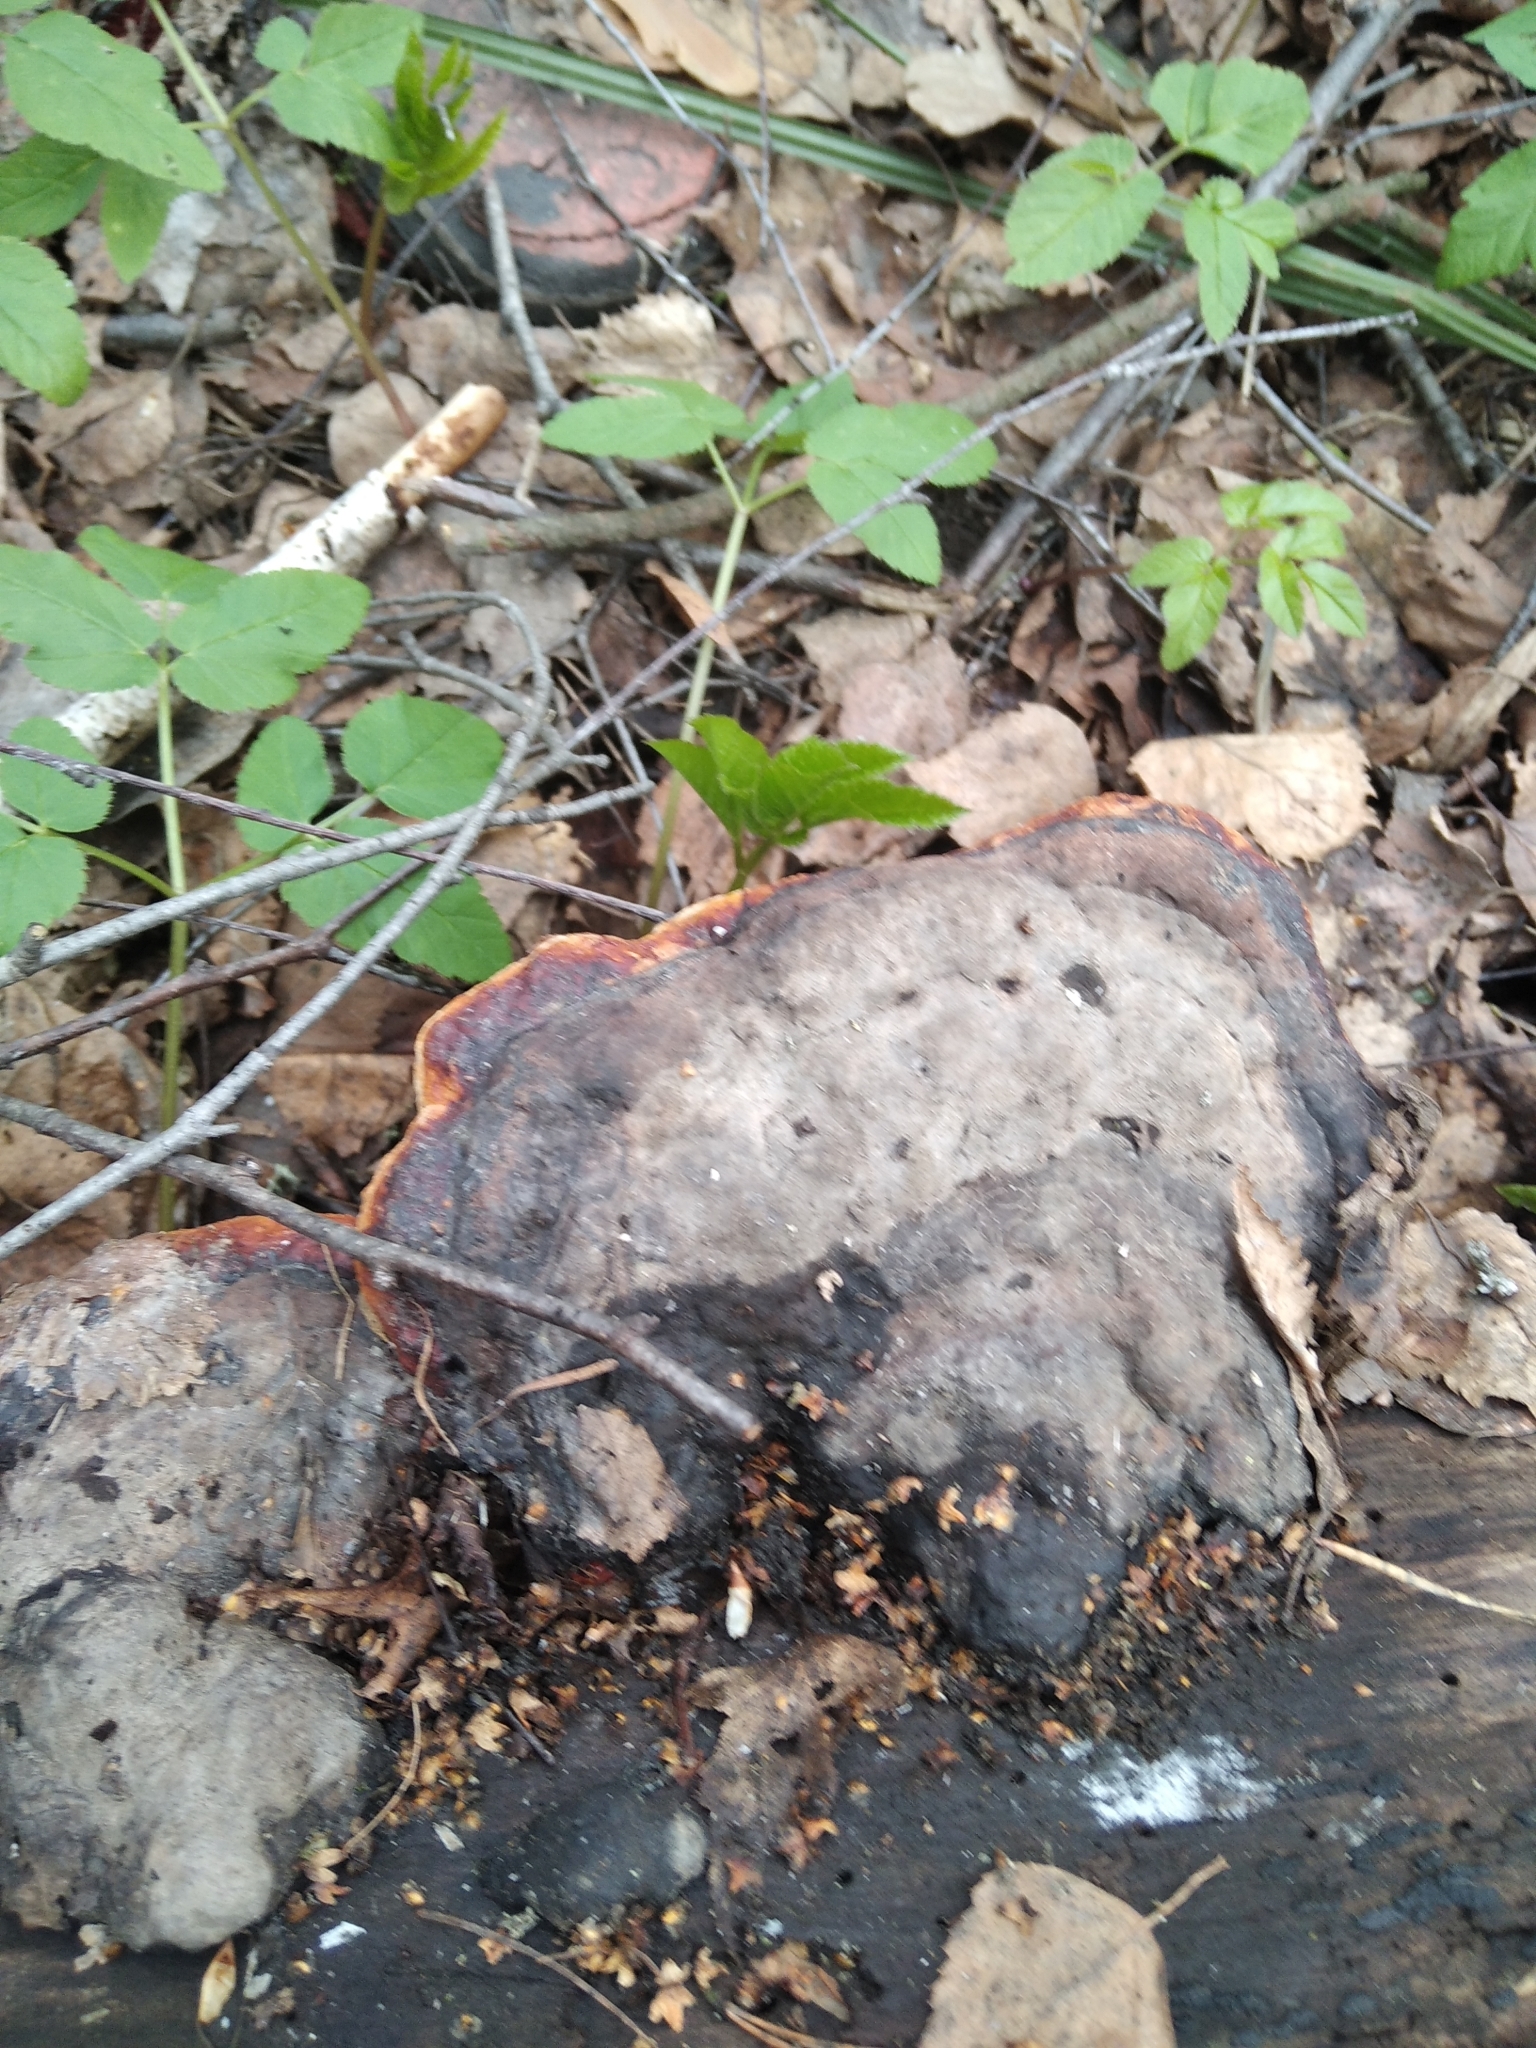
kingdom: Fungi
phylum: Basidiomycota
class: Agaricomycetes
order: Polyporales
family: Fomitopsidaceae
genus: Fomitopsis
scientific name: Fomitopsis pinicola
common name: Red-belted bracket
